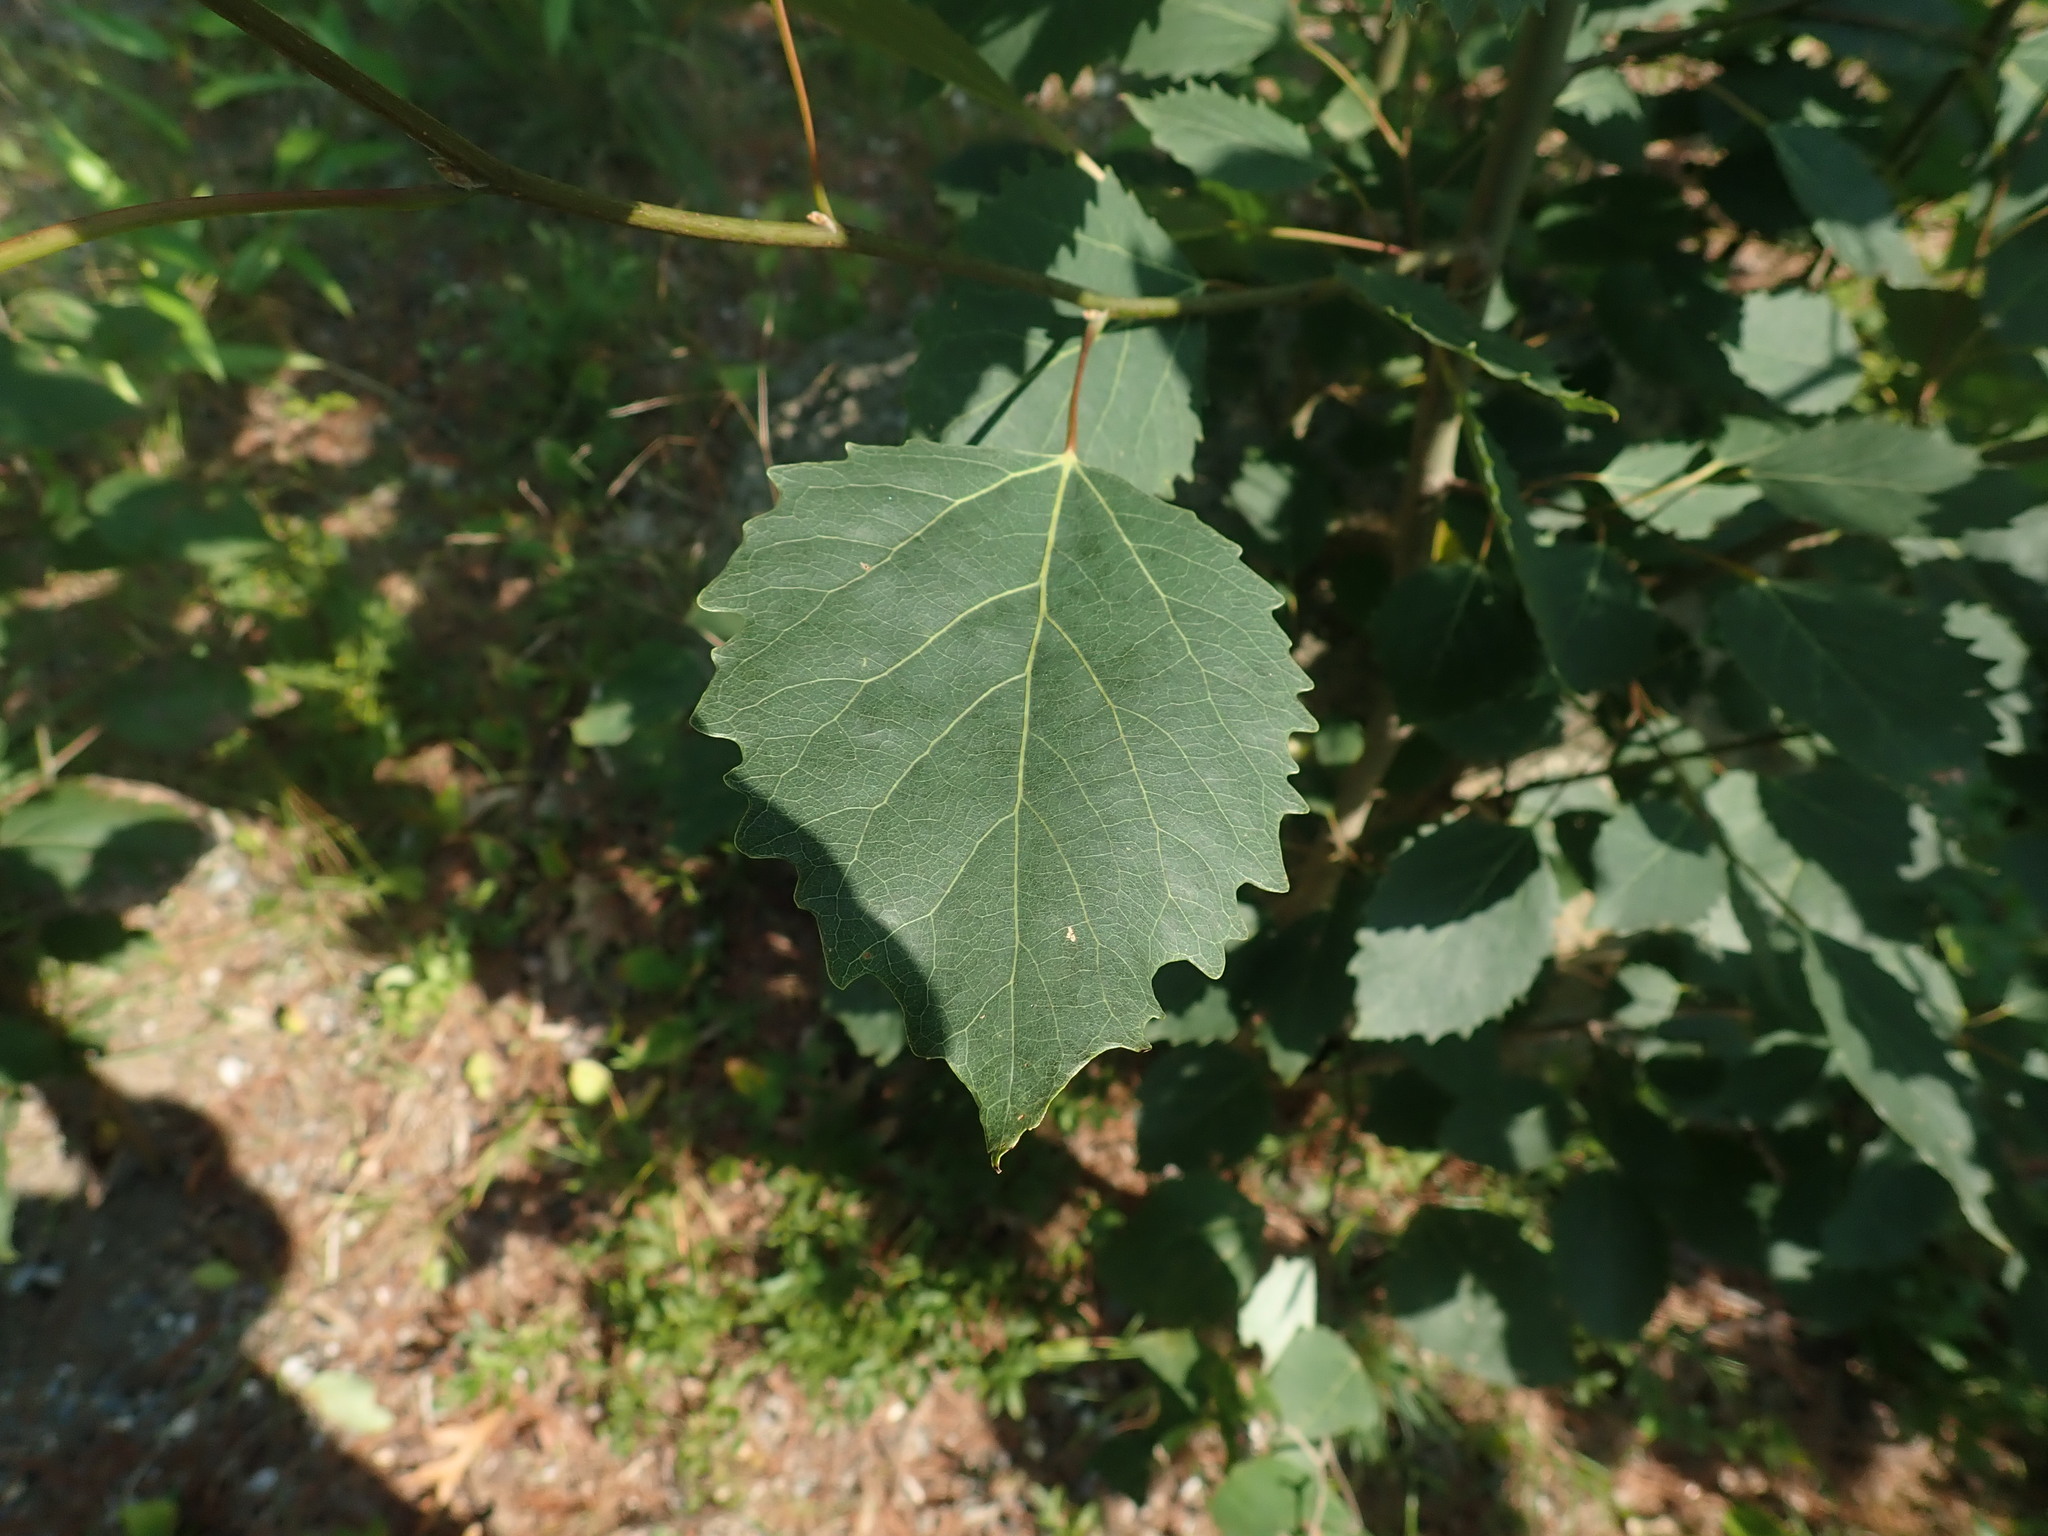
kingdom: Plantae
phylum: Tracheophyta
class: Magnoliopsida
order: Malpighiales
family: Salicaceae
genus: Populus
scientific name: Populus grandidentata
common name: Bigtooth aspen
